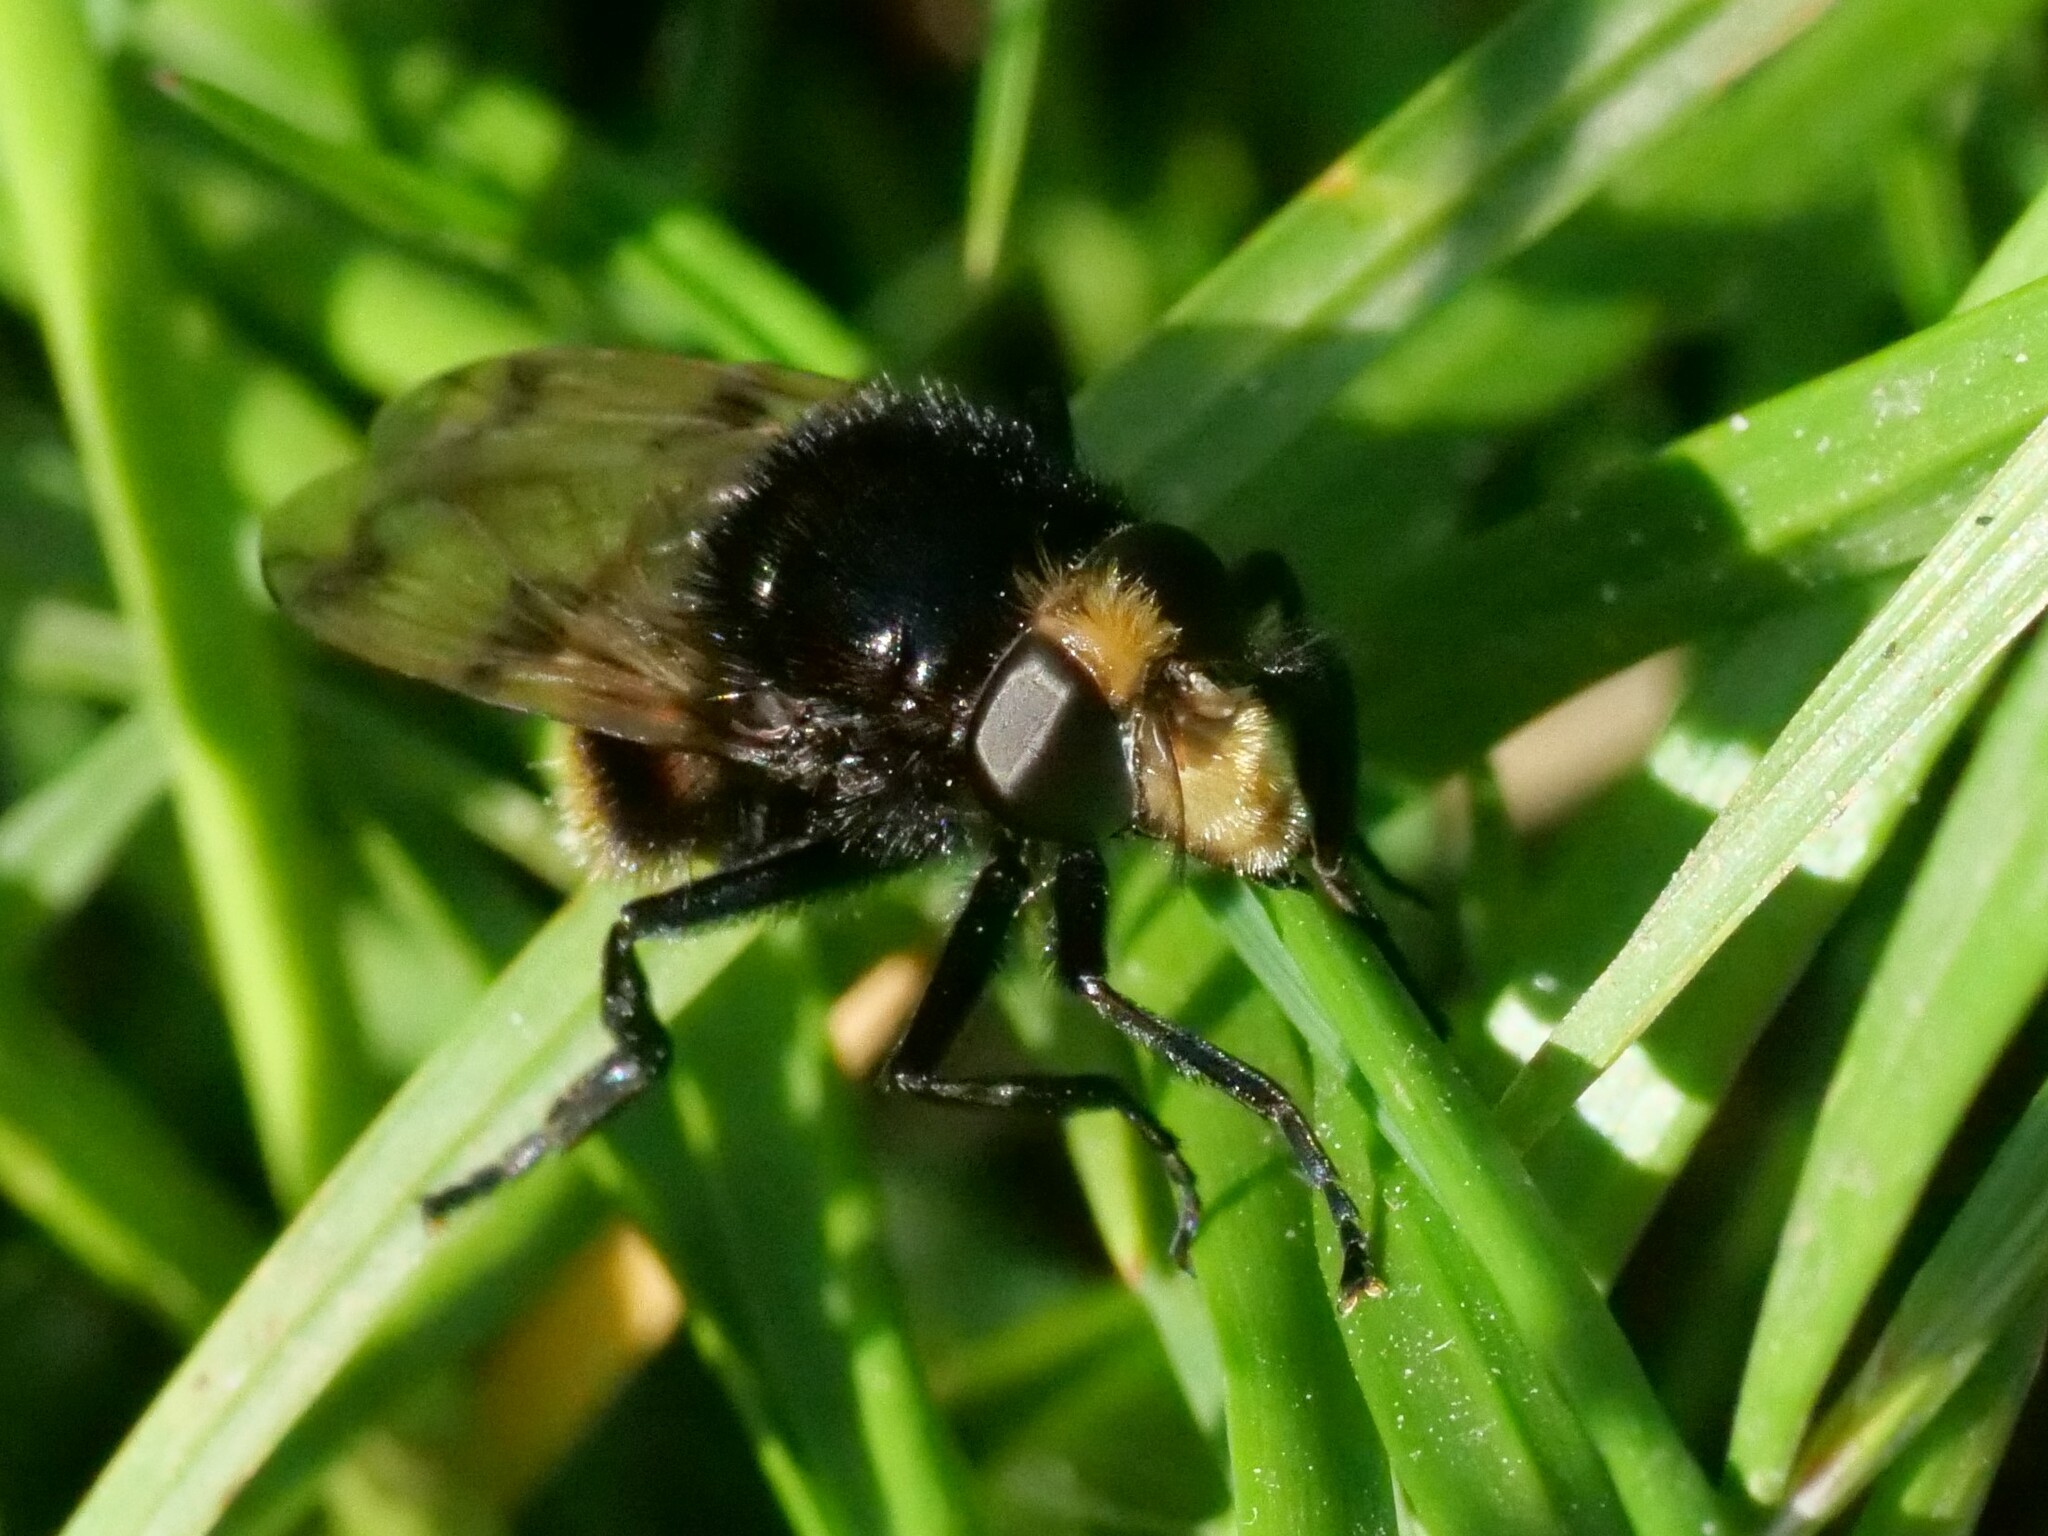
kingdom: Animalia
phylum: Arthropoda
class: Insecta
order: Diptera
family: Syrphidae
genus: Volucella
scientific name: Volucella bombylans
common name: Bumble bee hover fly
